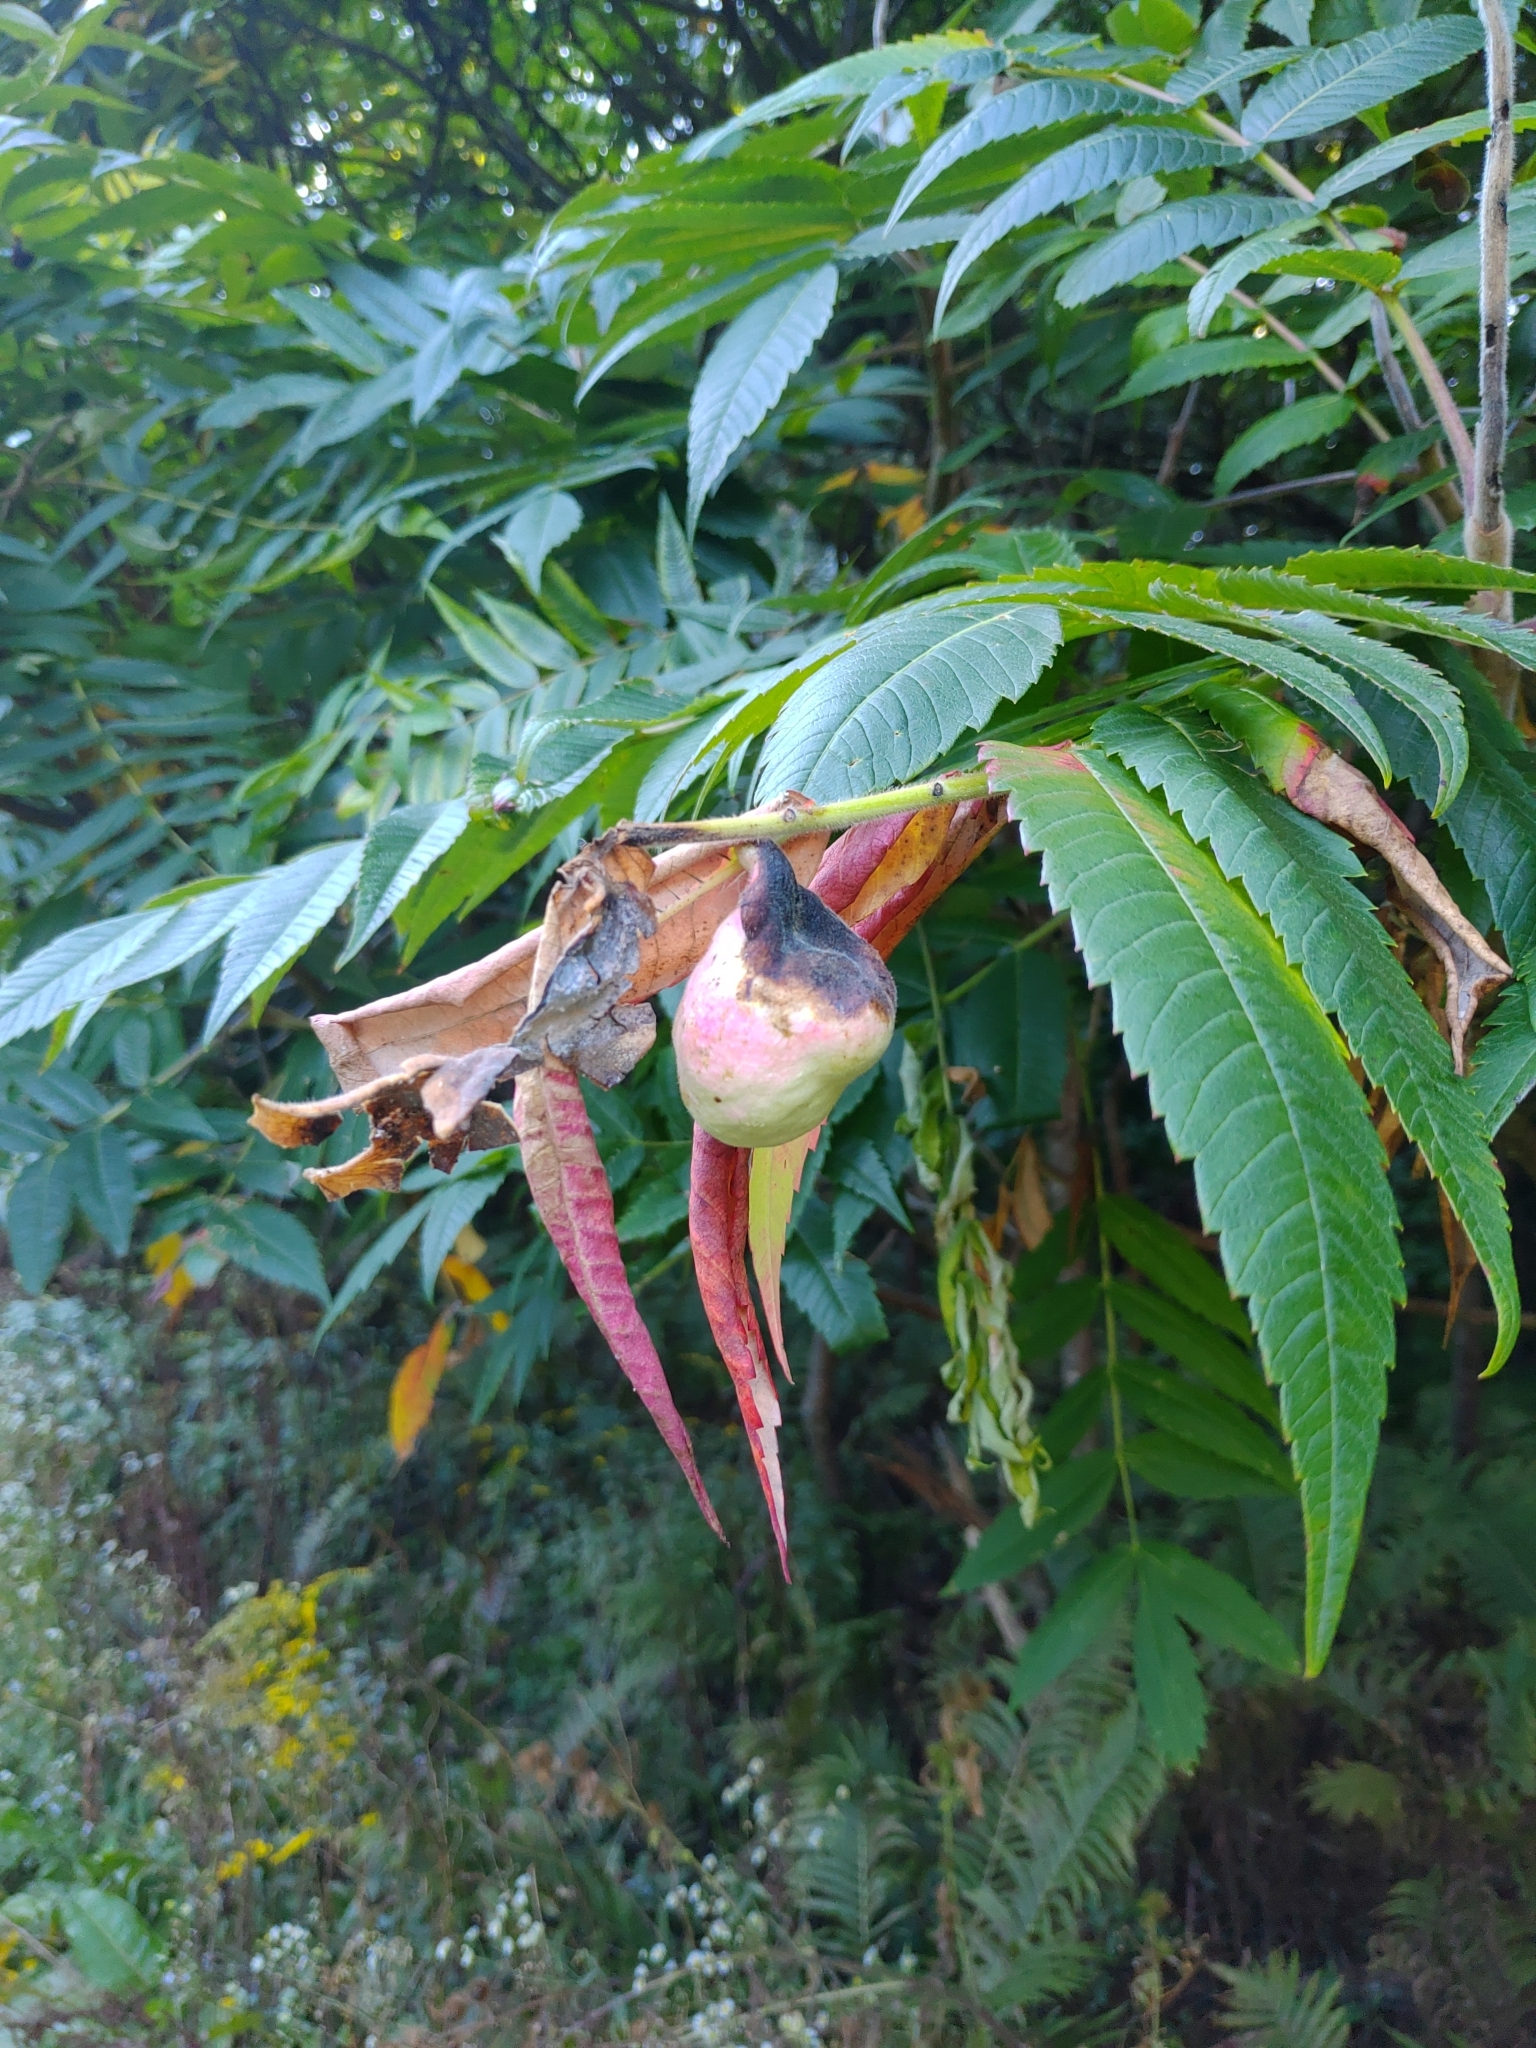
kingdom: Animalia
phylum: Arthropoda
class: Insecta
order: Hemiptera
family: Aphididae
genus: Melaphis
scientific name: Melaphis rhois
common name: Sumac gall aphid
